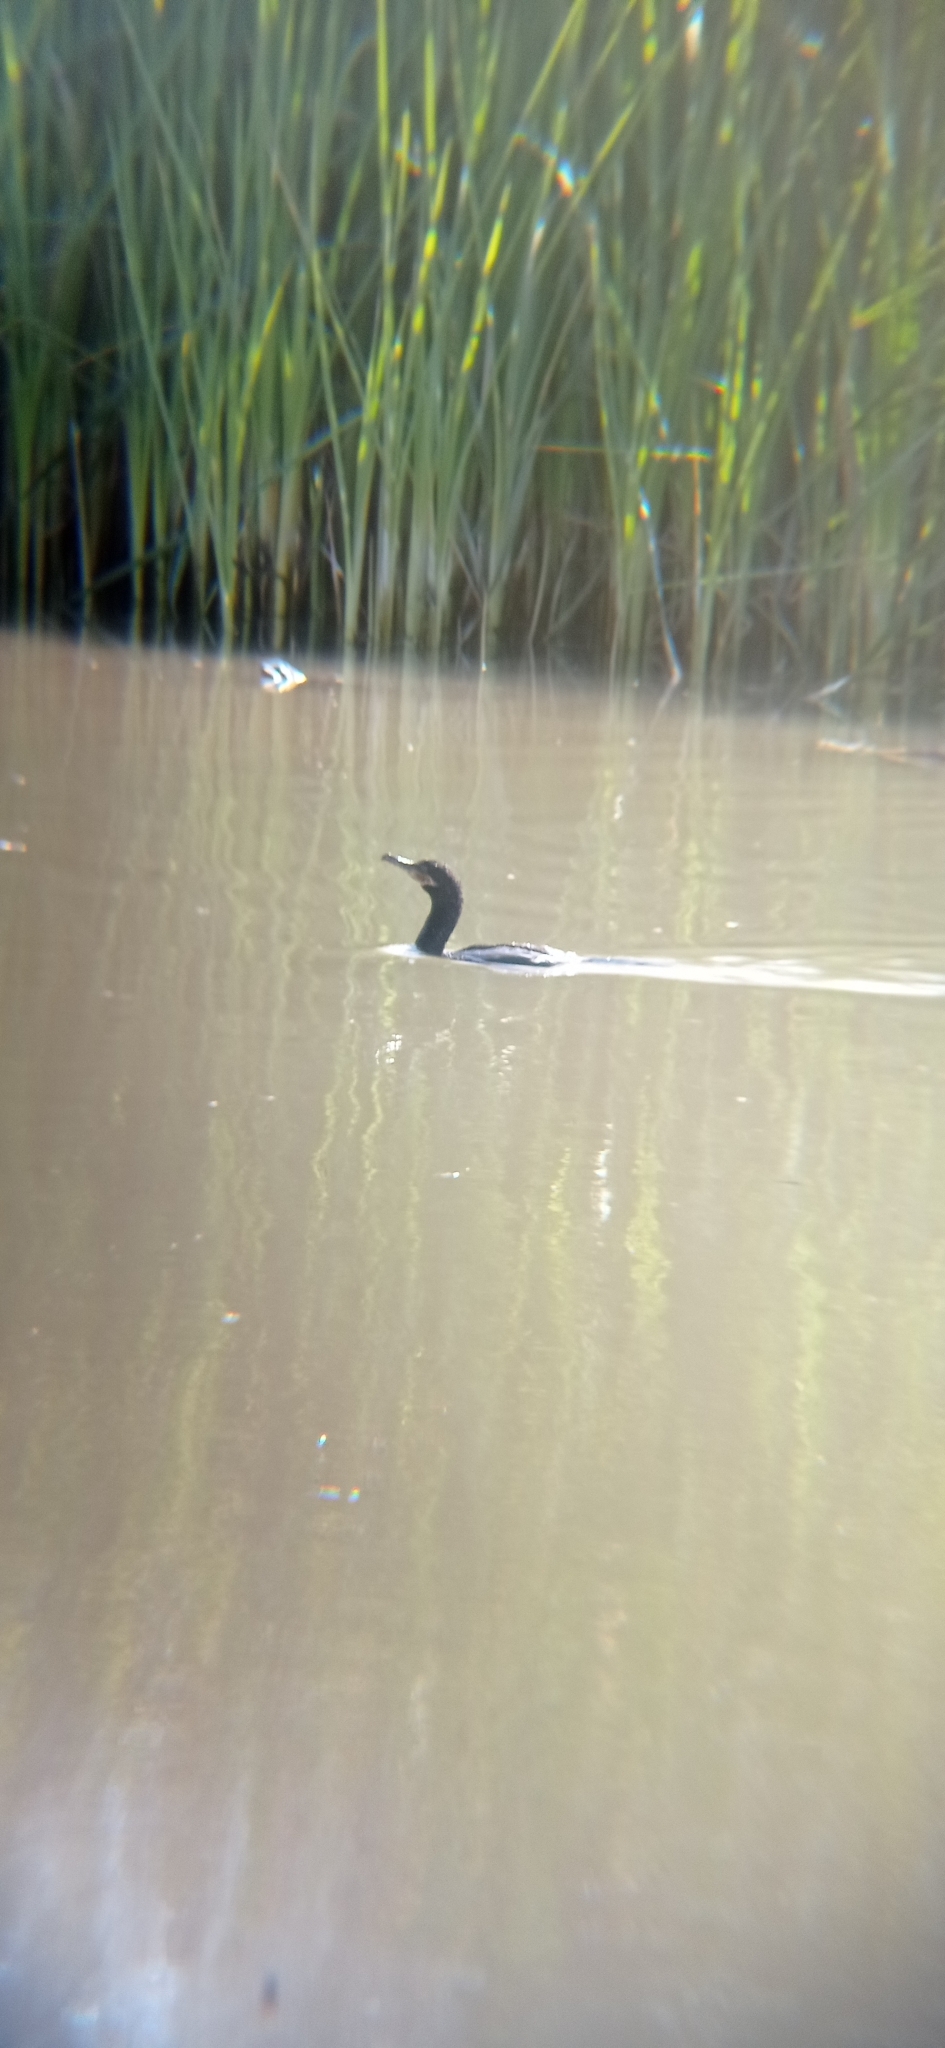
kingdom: Animalia
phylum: Chordata
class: Aves
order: Suliformes
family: Phalacrocoracidae
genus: Phalacrocorax
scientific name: Phalacrocorax brasilianus
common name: Neotropic cormorant
